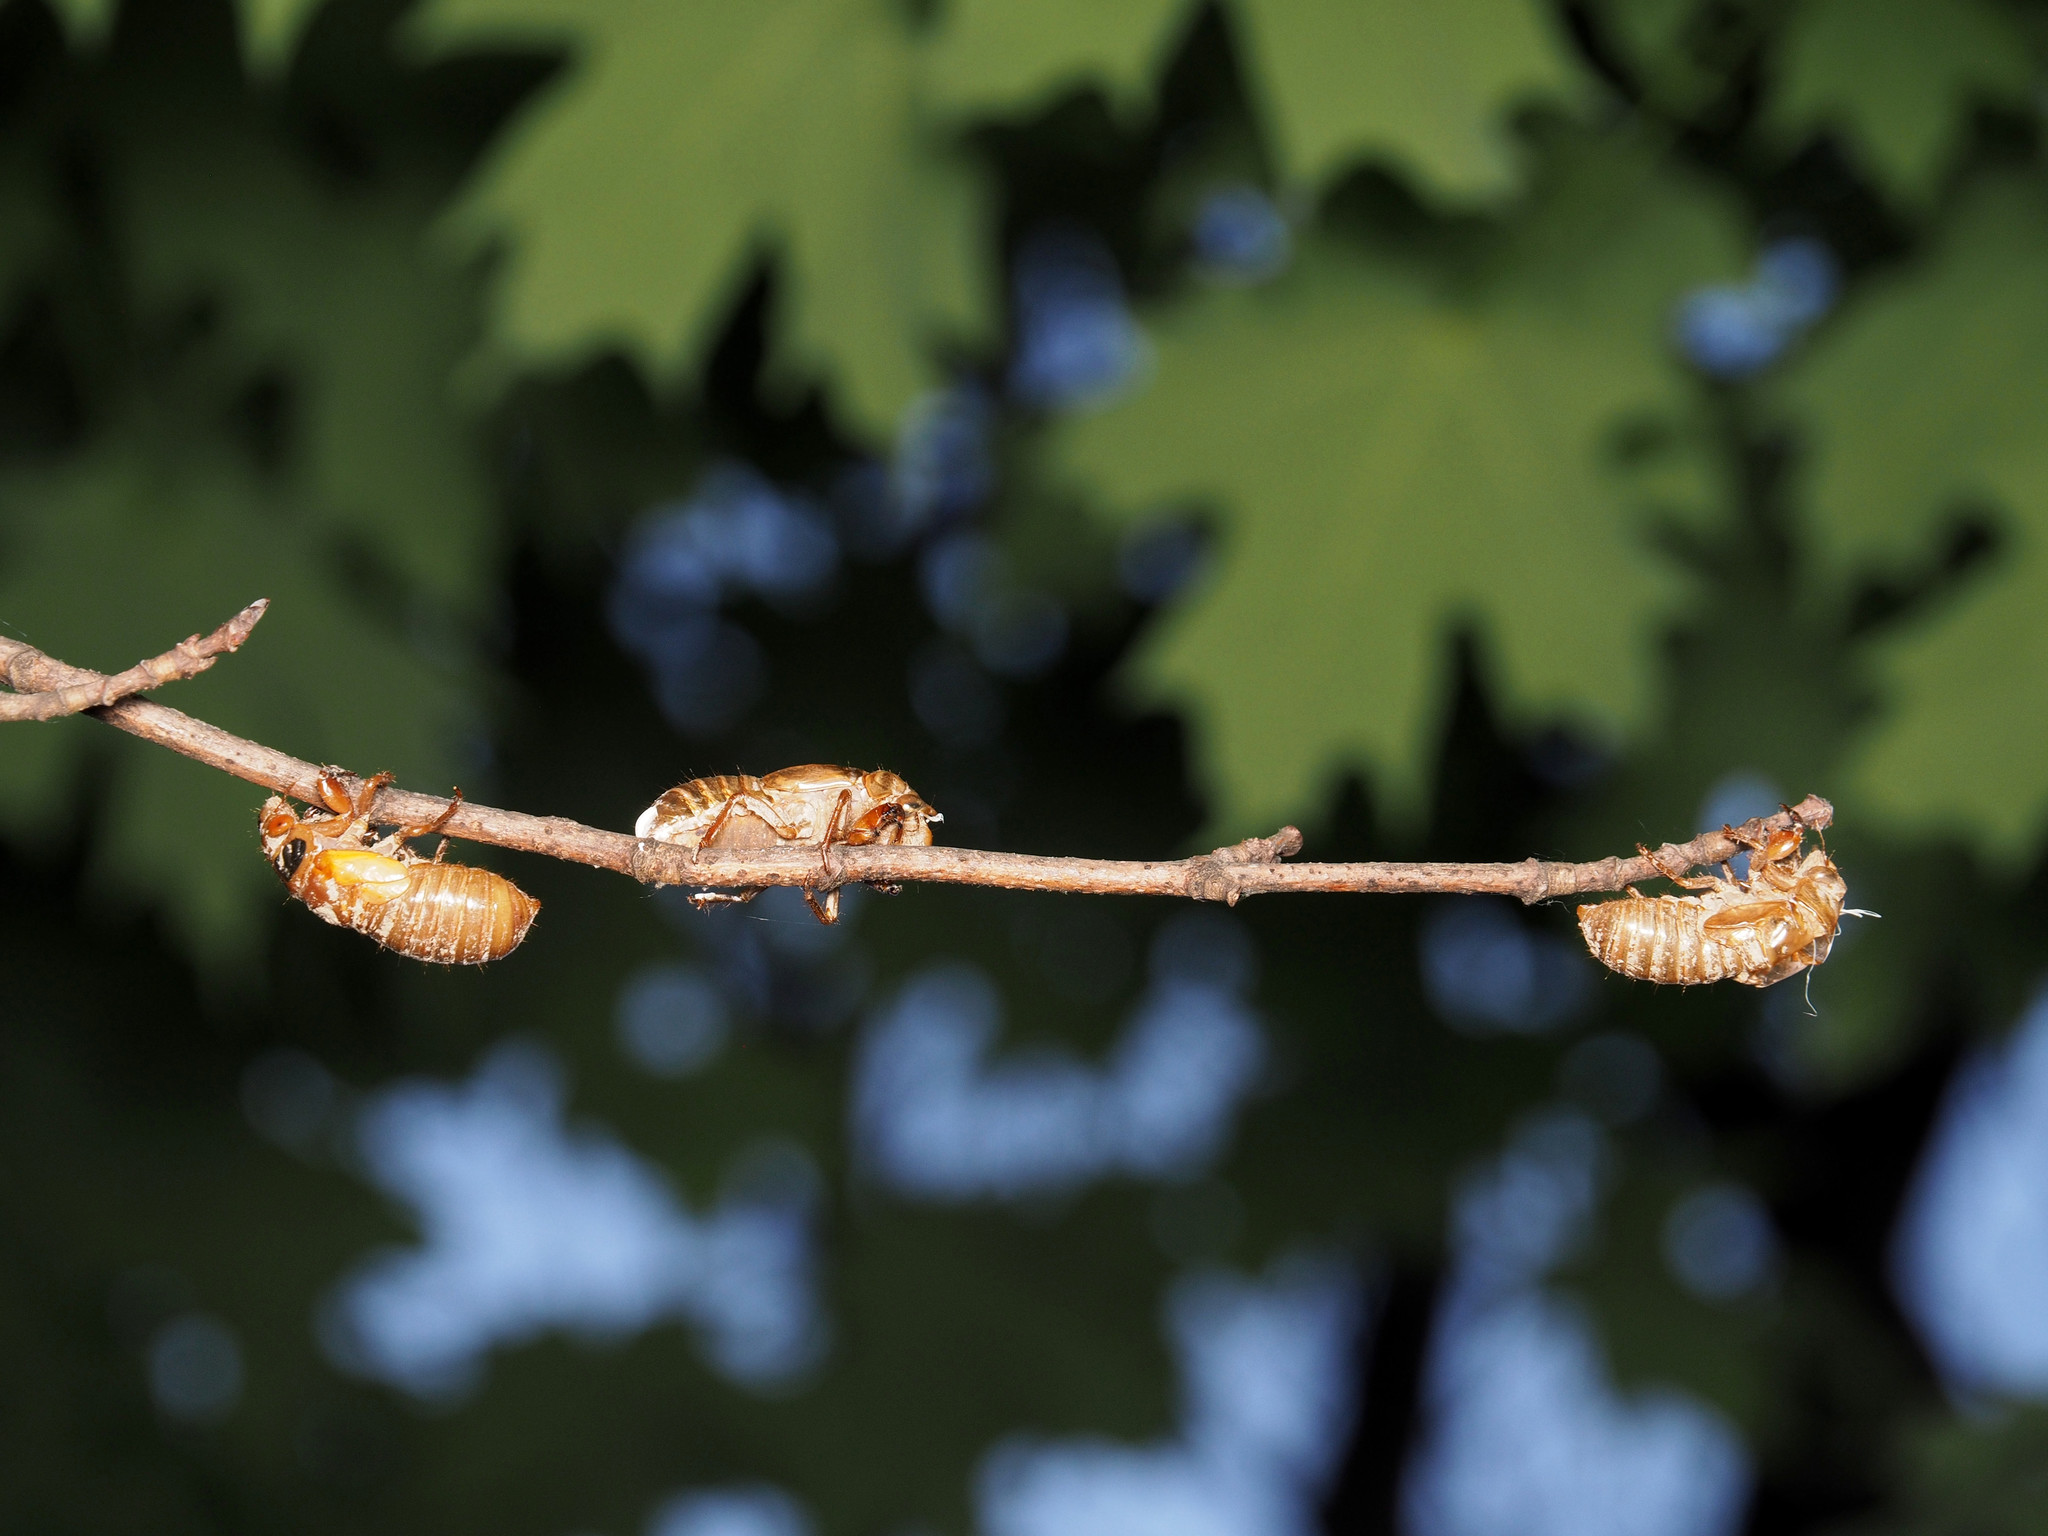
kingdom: Animalia
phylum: Arthropoda
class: Insecta
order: Hemiptera
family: Cicadidae
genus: Magicicada
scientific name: Magicicada
